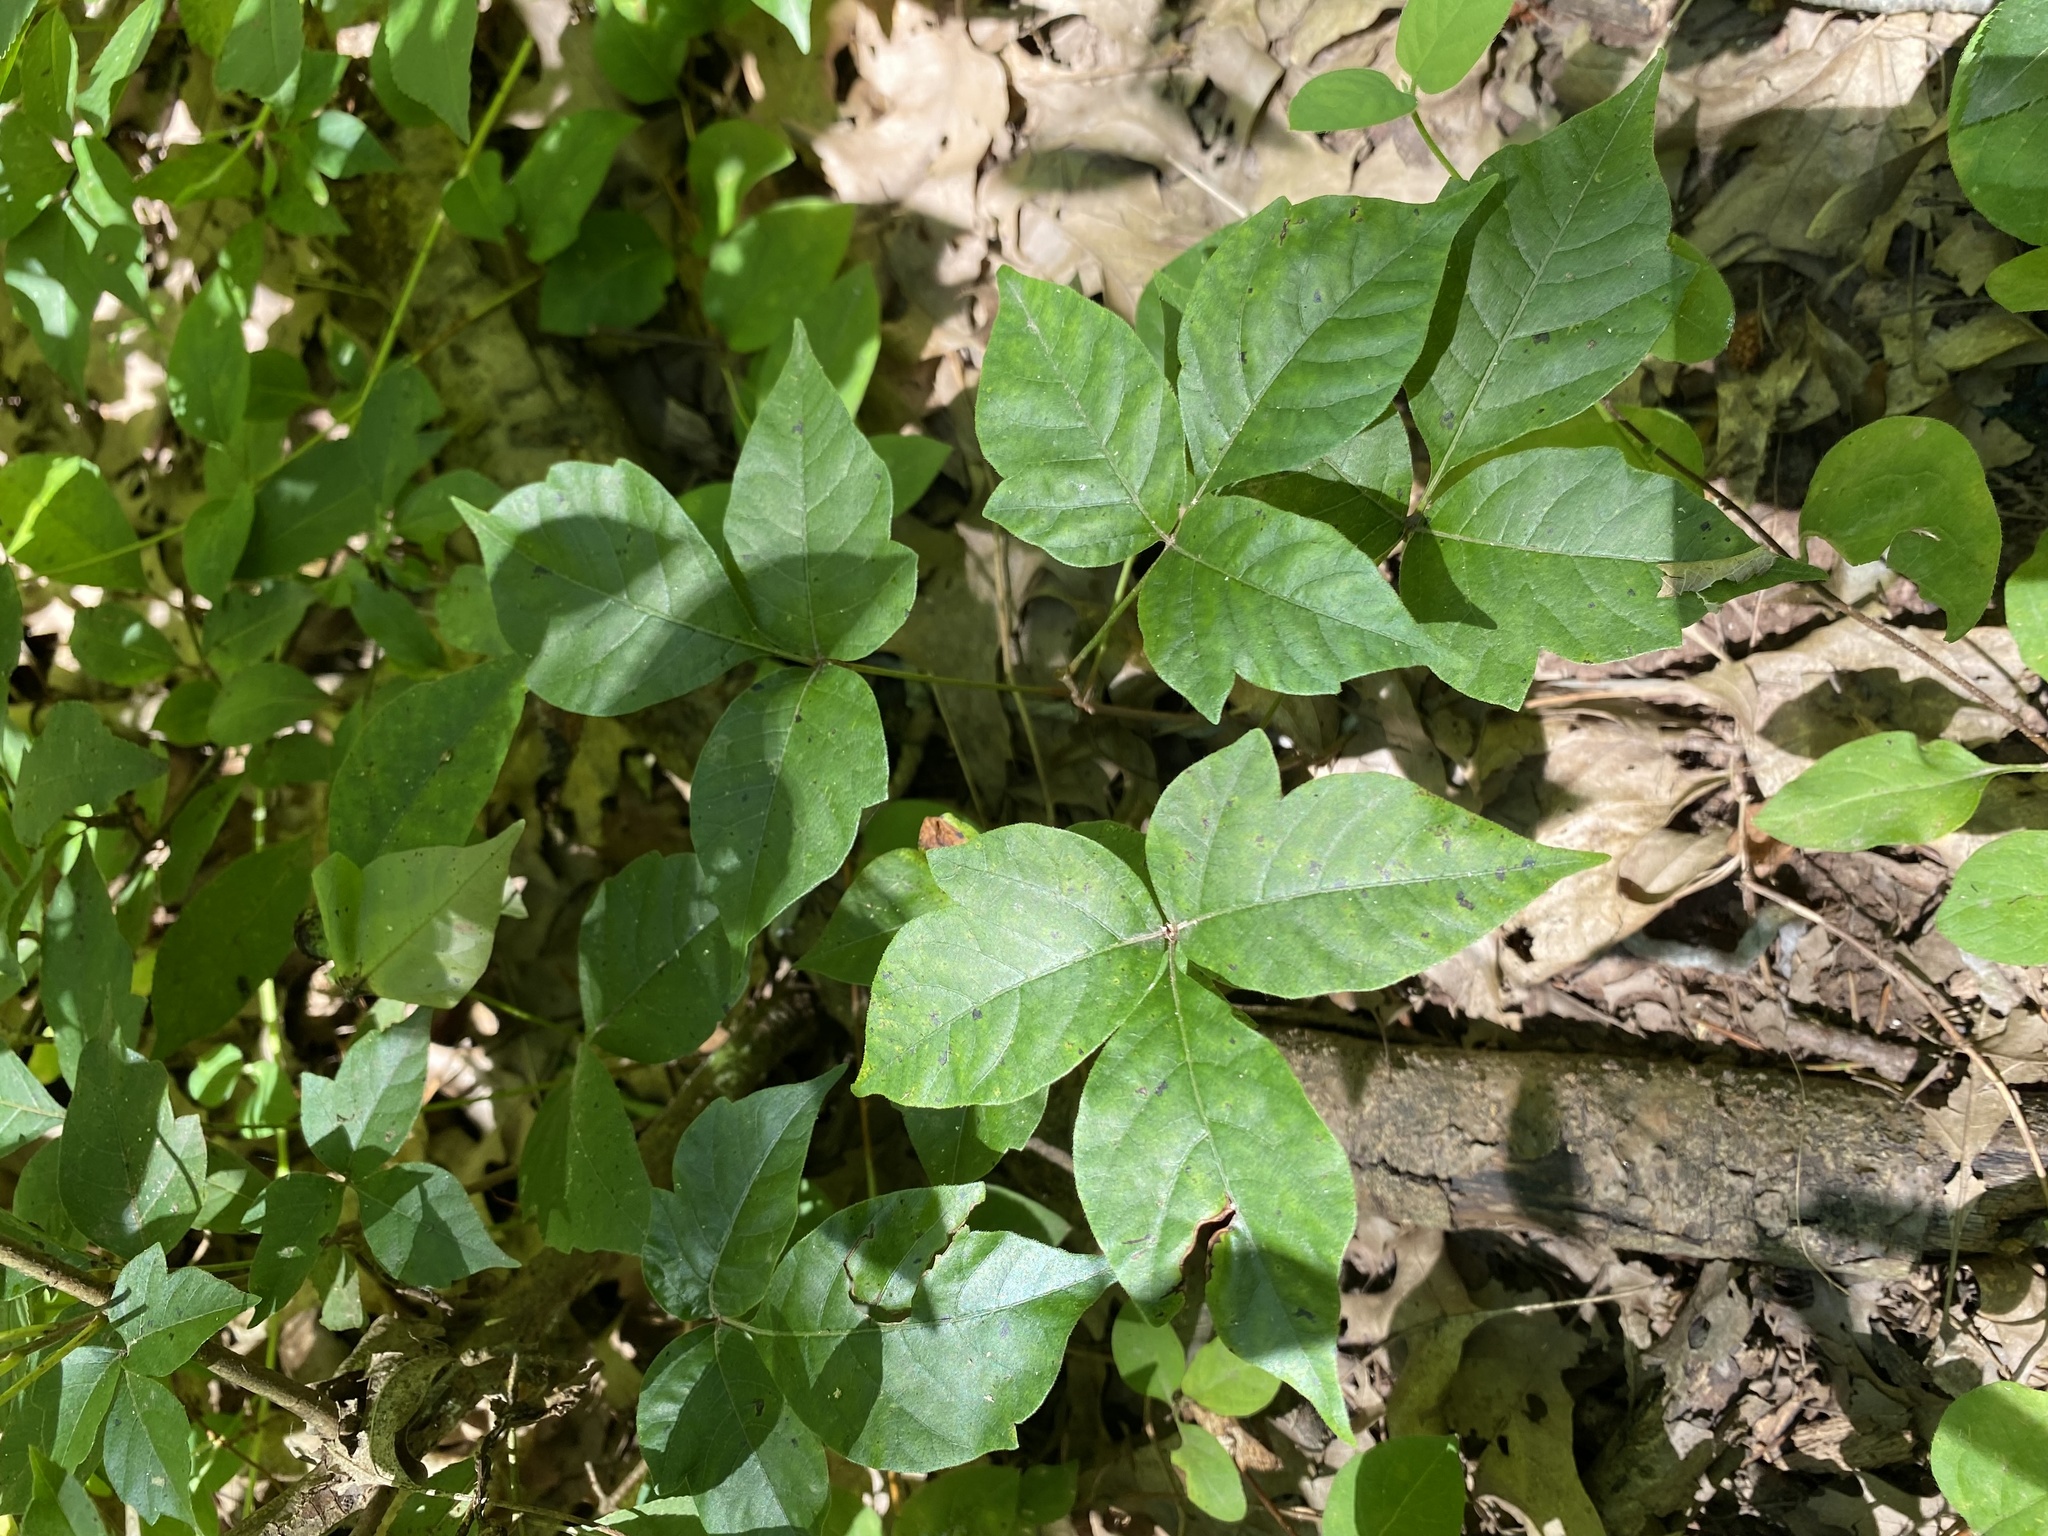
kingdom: Plantae
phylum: Tracheophyta
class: Magnoliopsida
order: Sapindales
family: Anacardiaceae
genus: Toxicodendron
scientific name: Toxicodendron radicans
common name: Poison ivy
